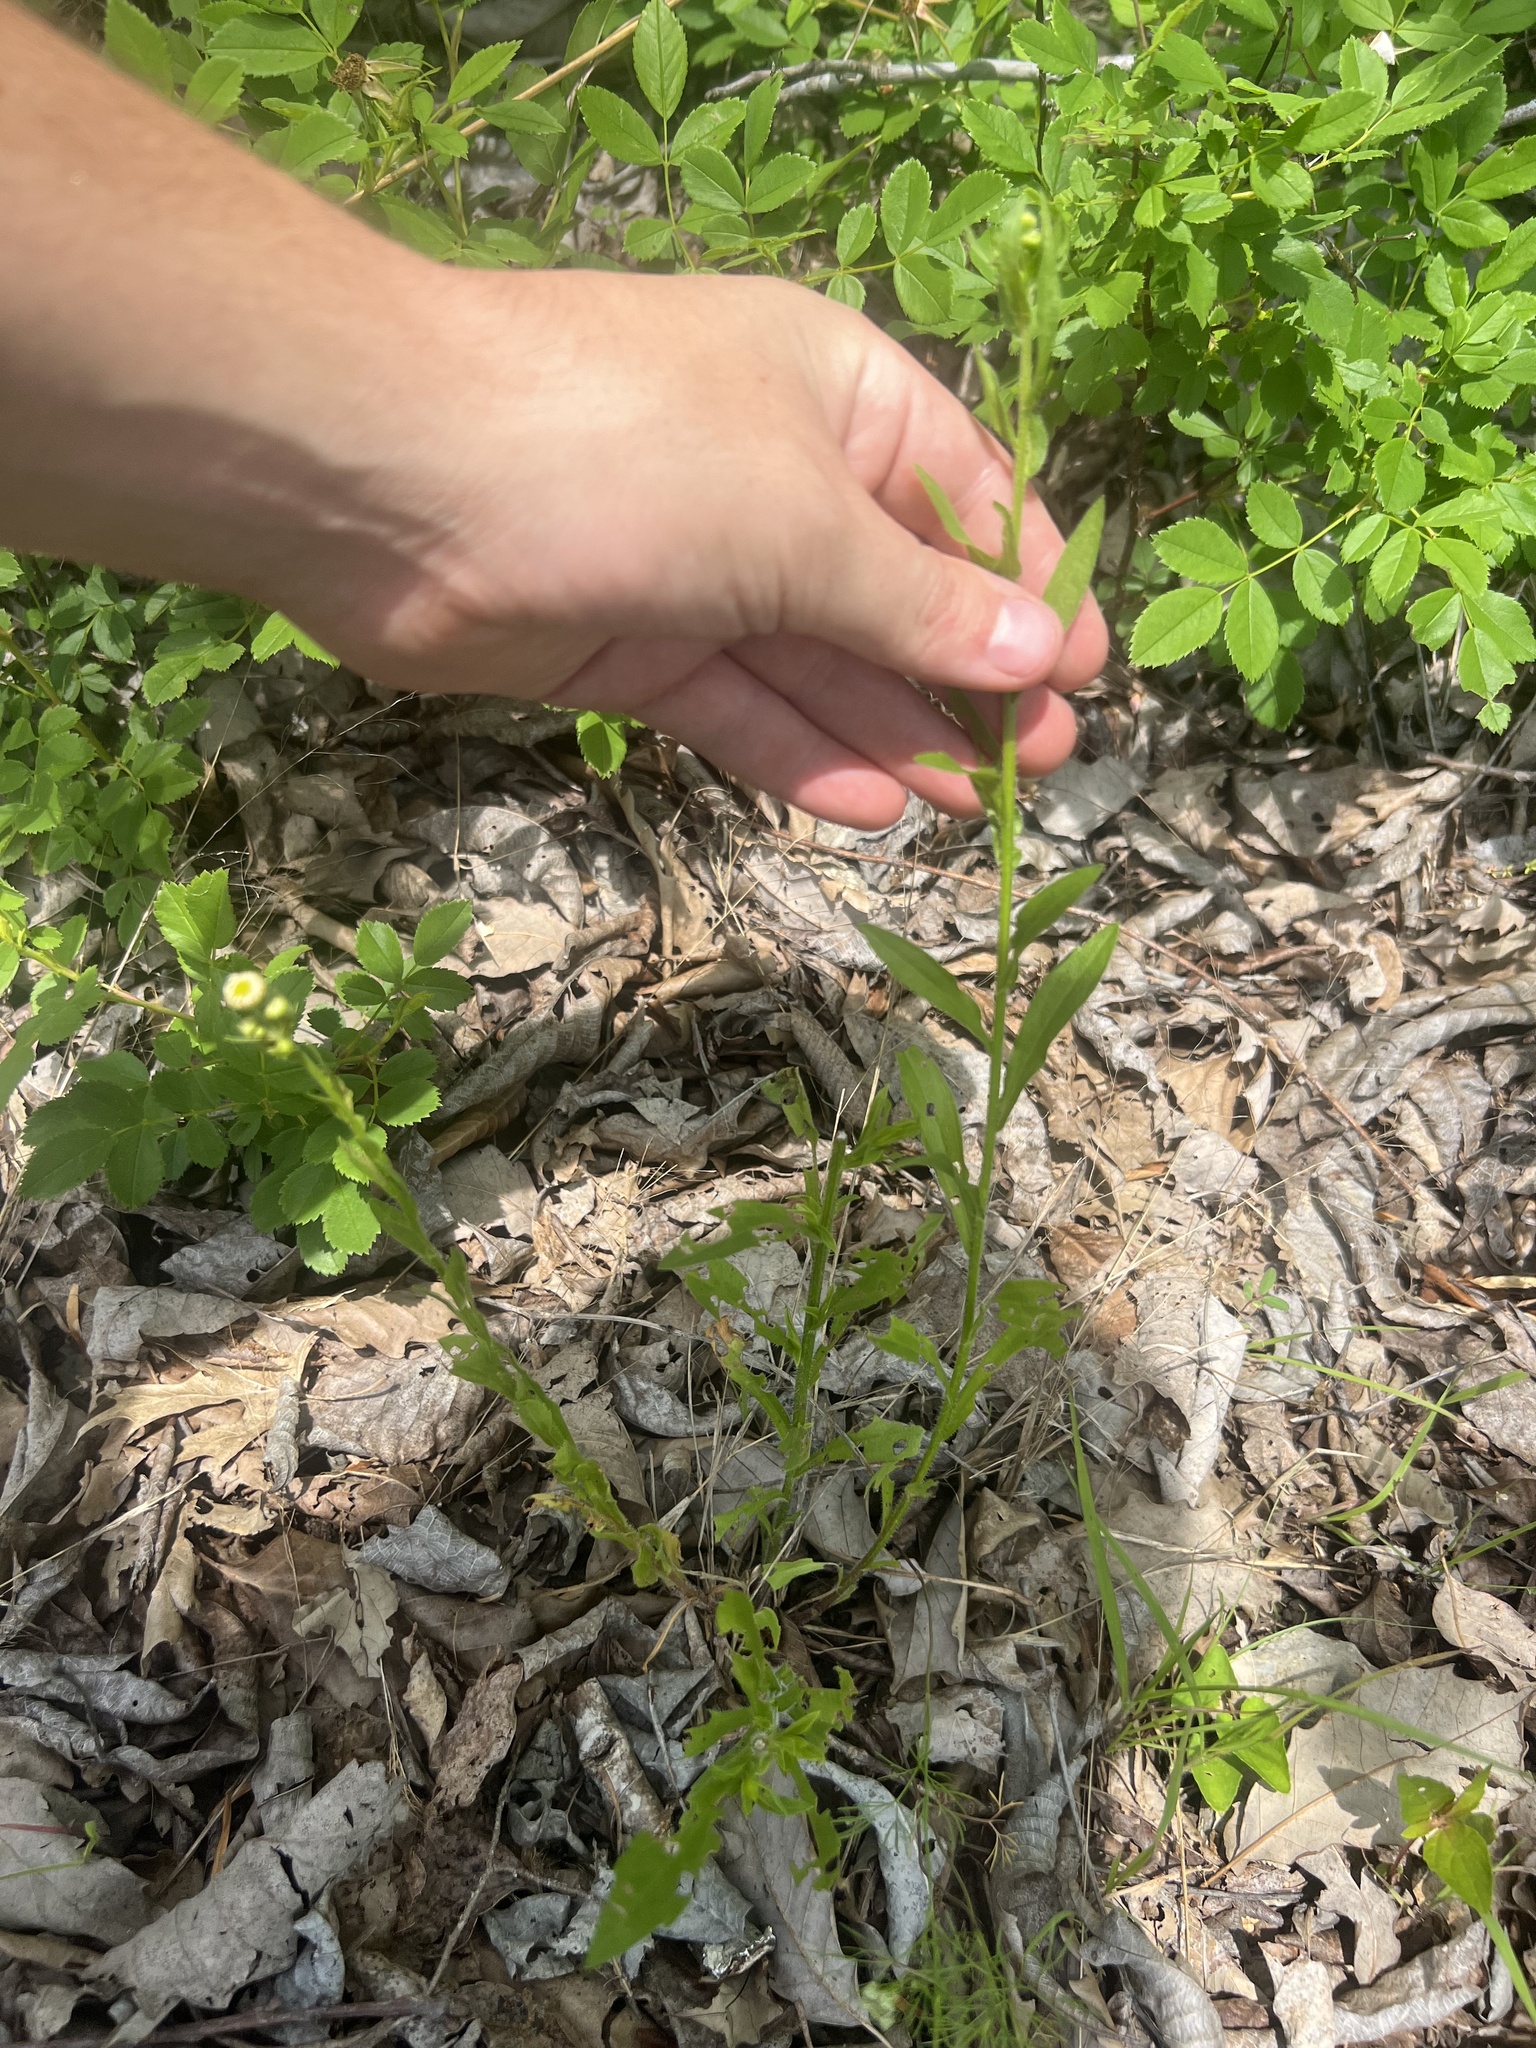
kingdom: Plantae
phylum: Tracheophyta
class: Magnoliopsida
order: Asterales
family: Asteraceae
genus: Erigeron
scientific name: Erigeron philadelphicus
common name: Robin's-plantain
